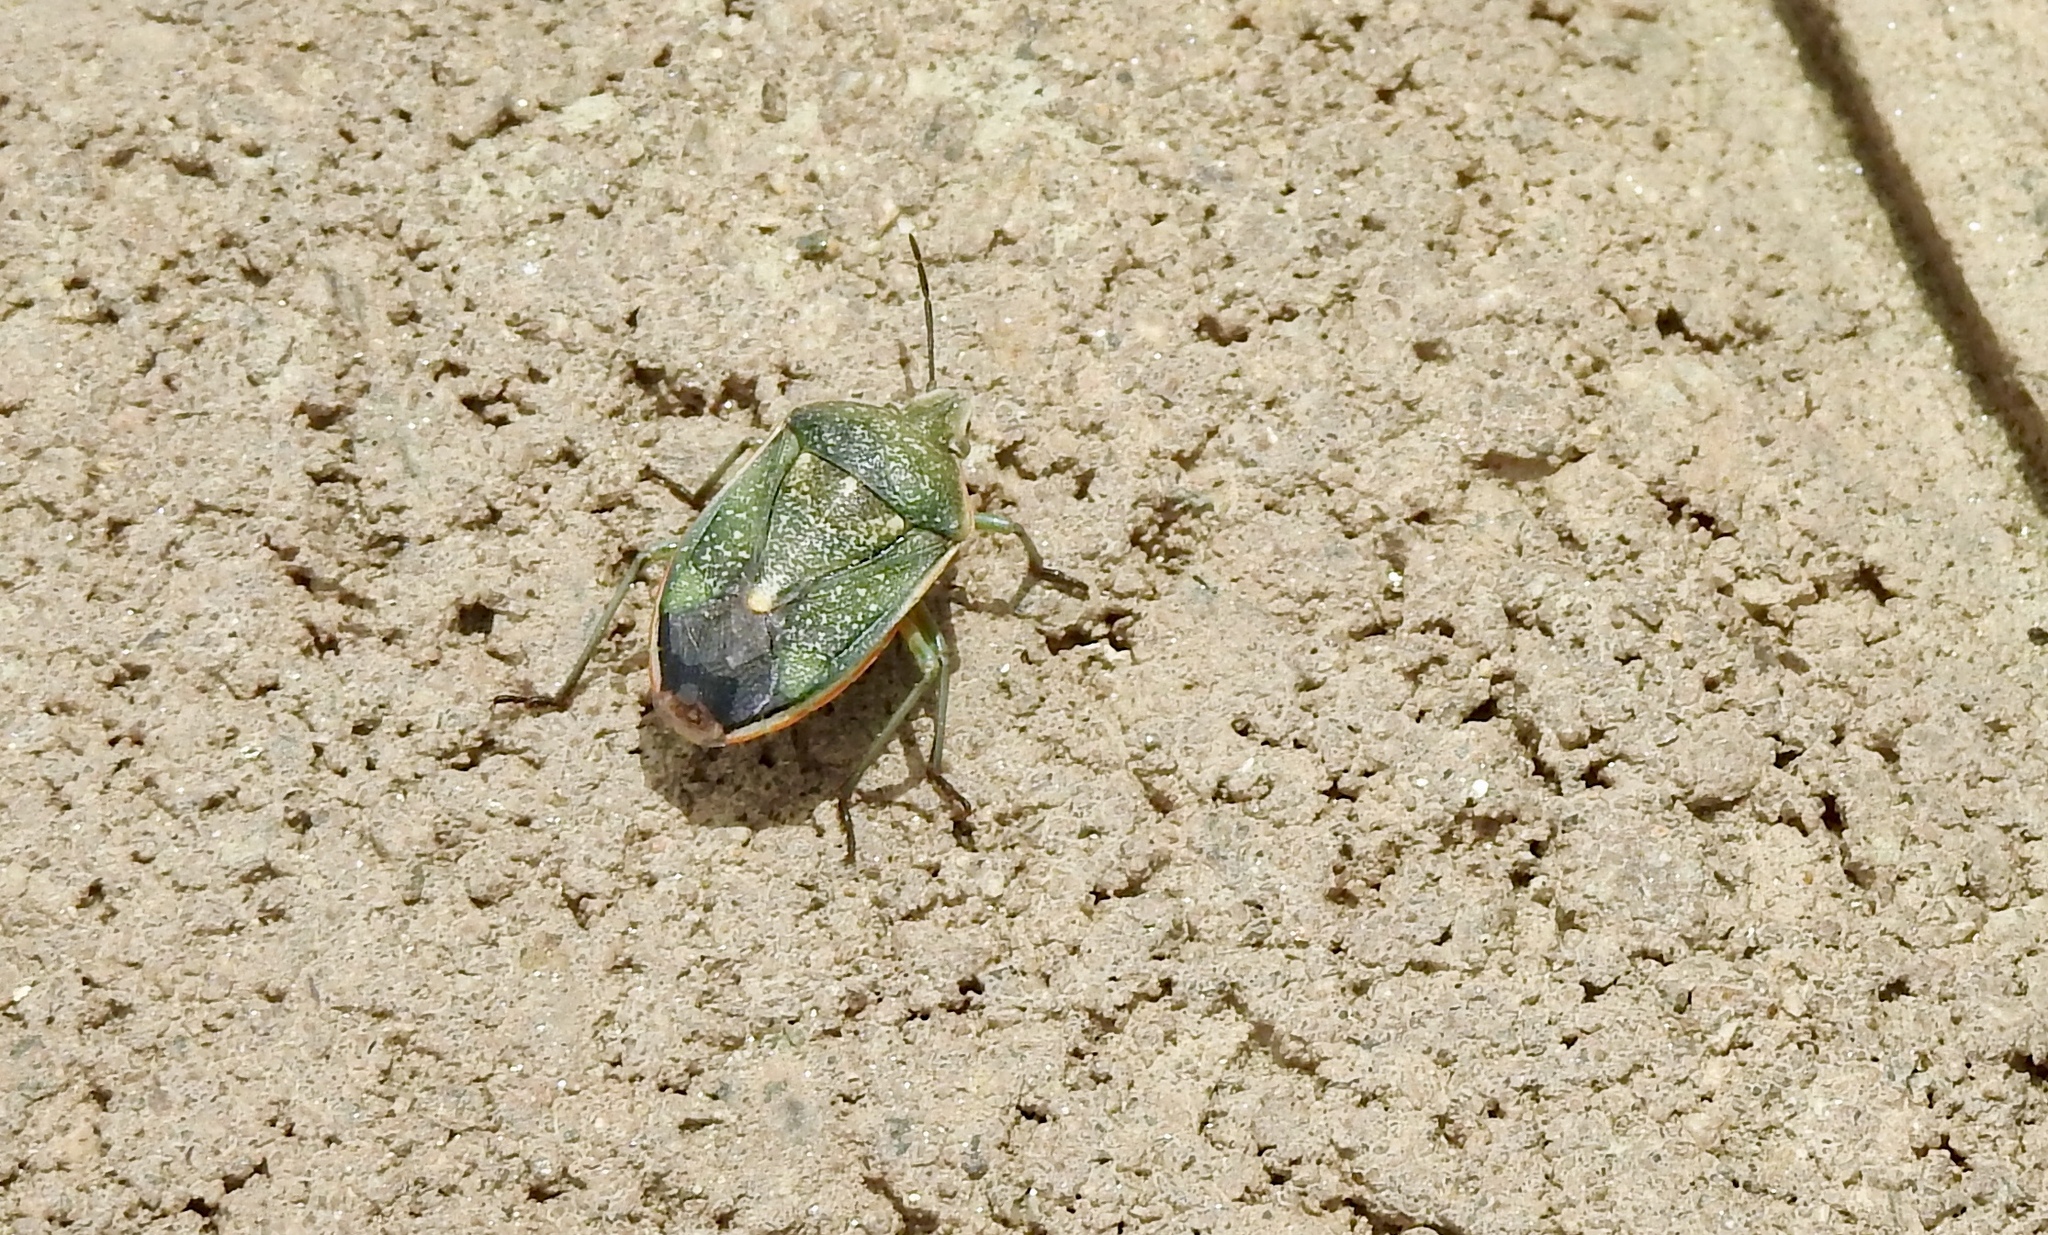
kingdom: Animalia
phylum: Arthropoda
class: Insecta
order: Hemiptera
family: Pentatomidae
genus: Chlorochroa
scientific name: Chlorochroa sayi
